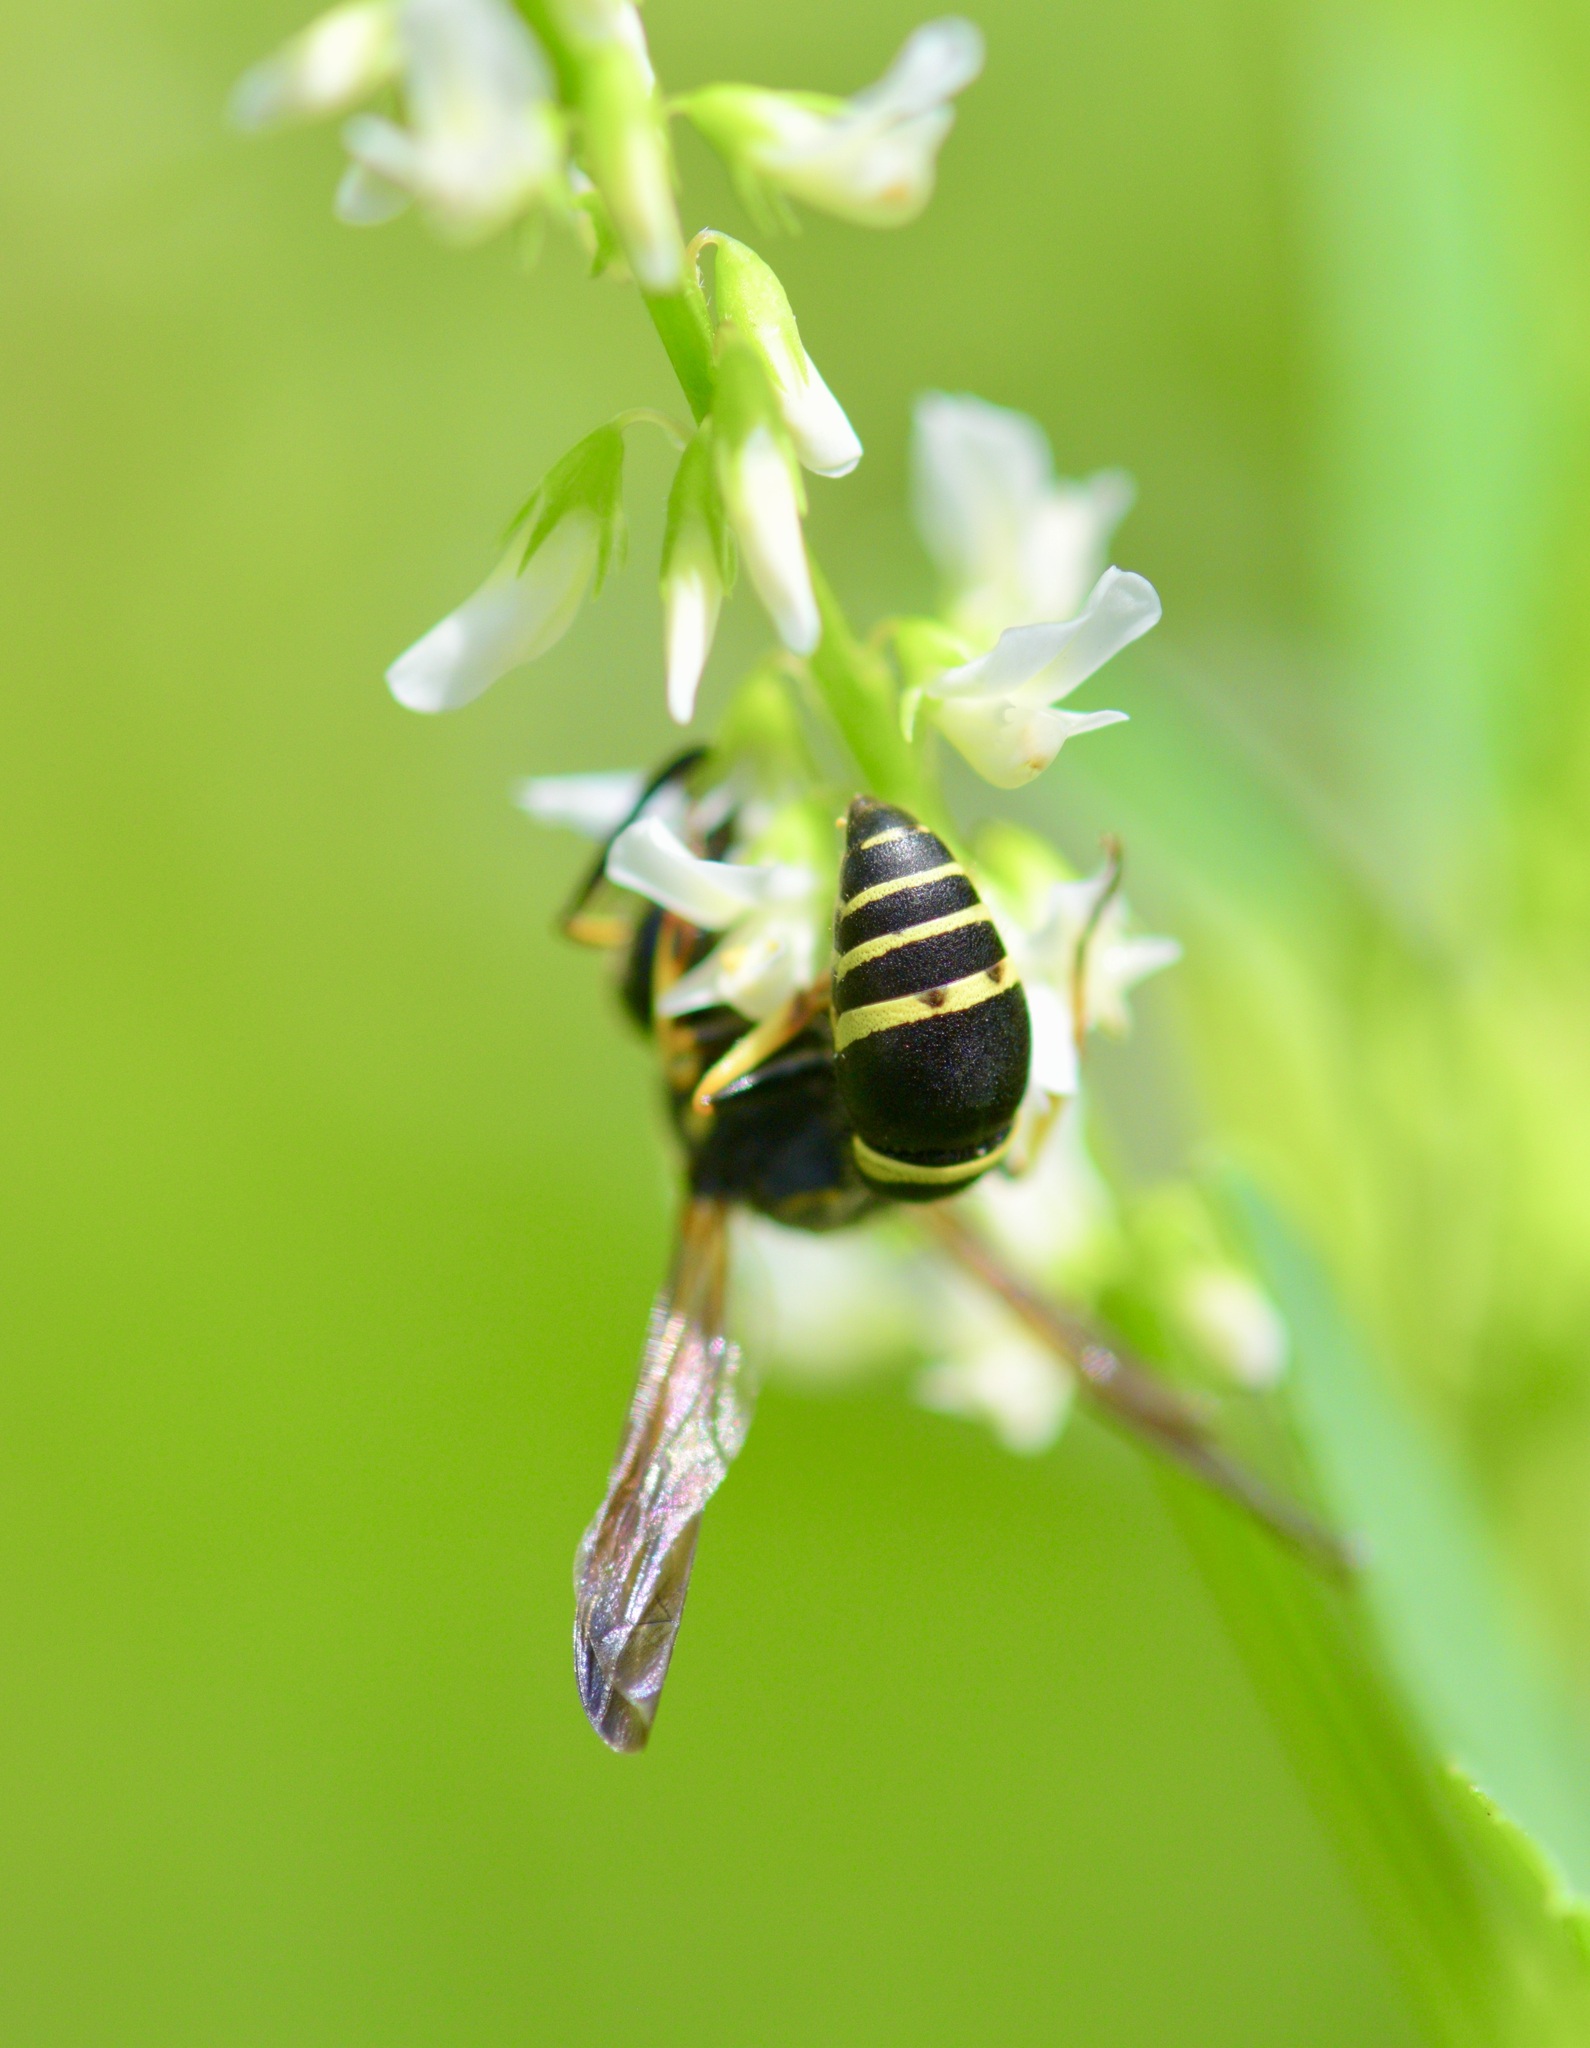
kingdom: Animalia
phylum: Arthropoda
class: Insecta
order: Hymenoptera
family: Vespidae
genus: Ancistrocerus
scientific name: Ancistrocerus catskill
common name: Vespid wasp
